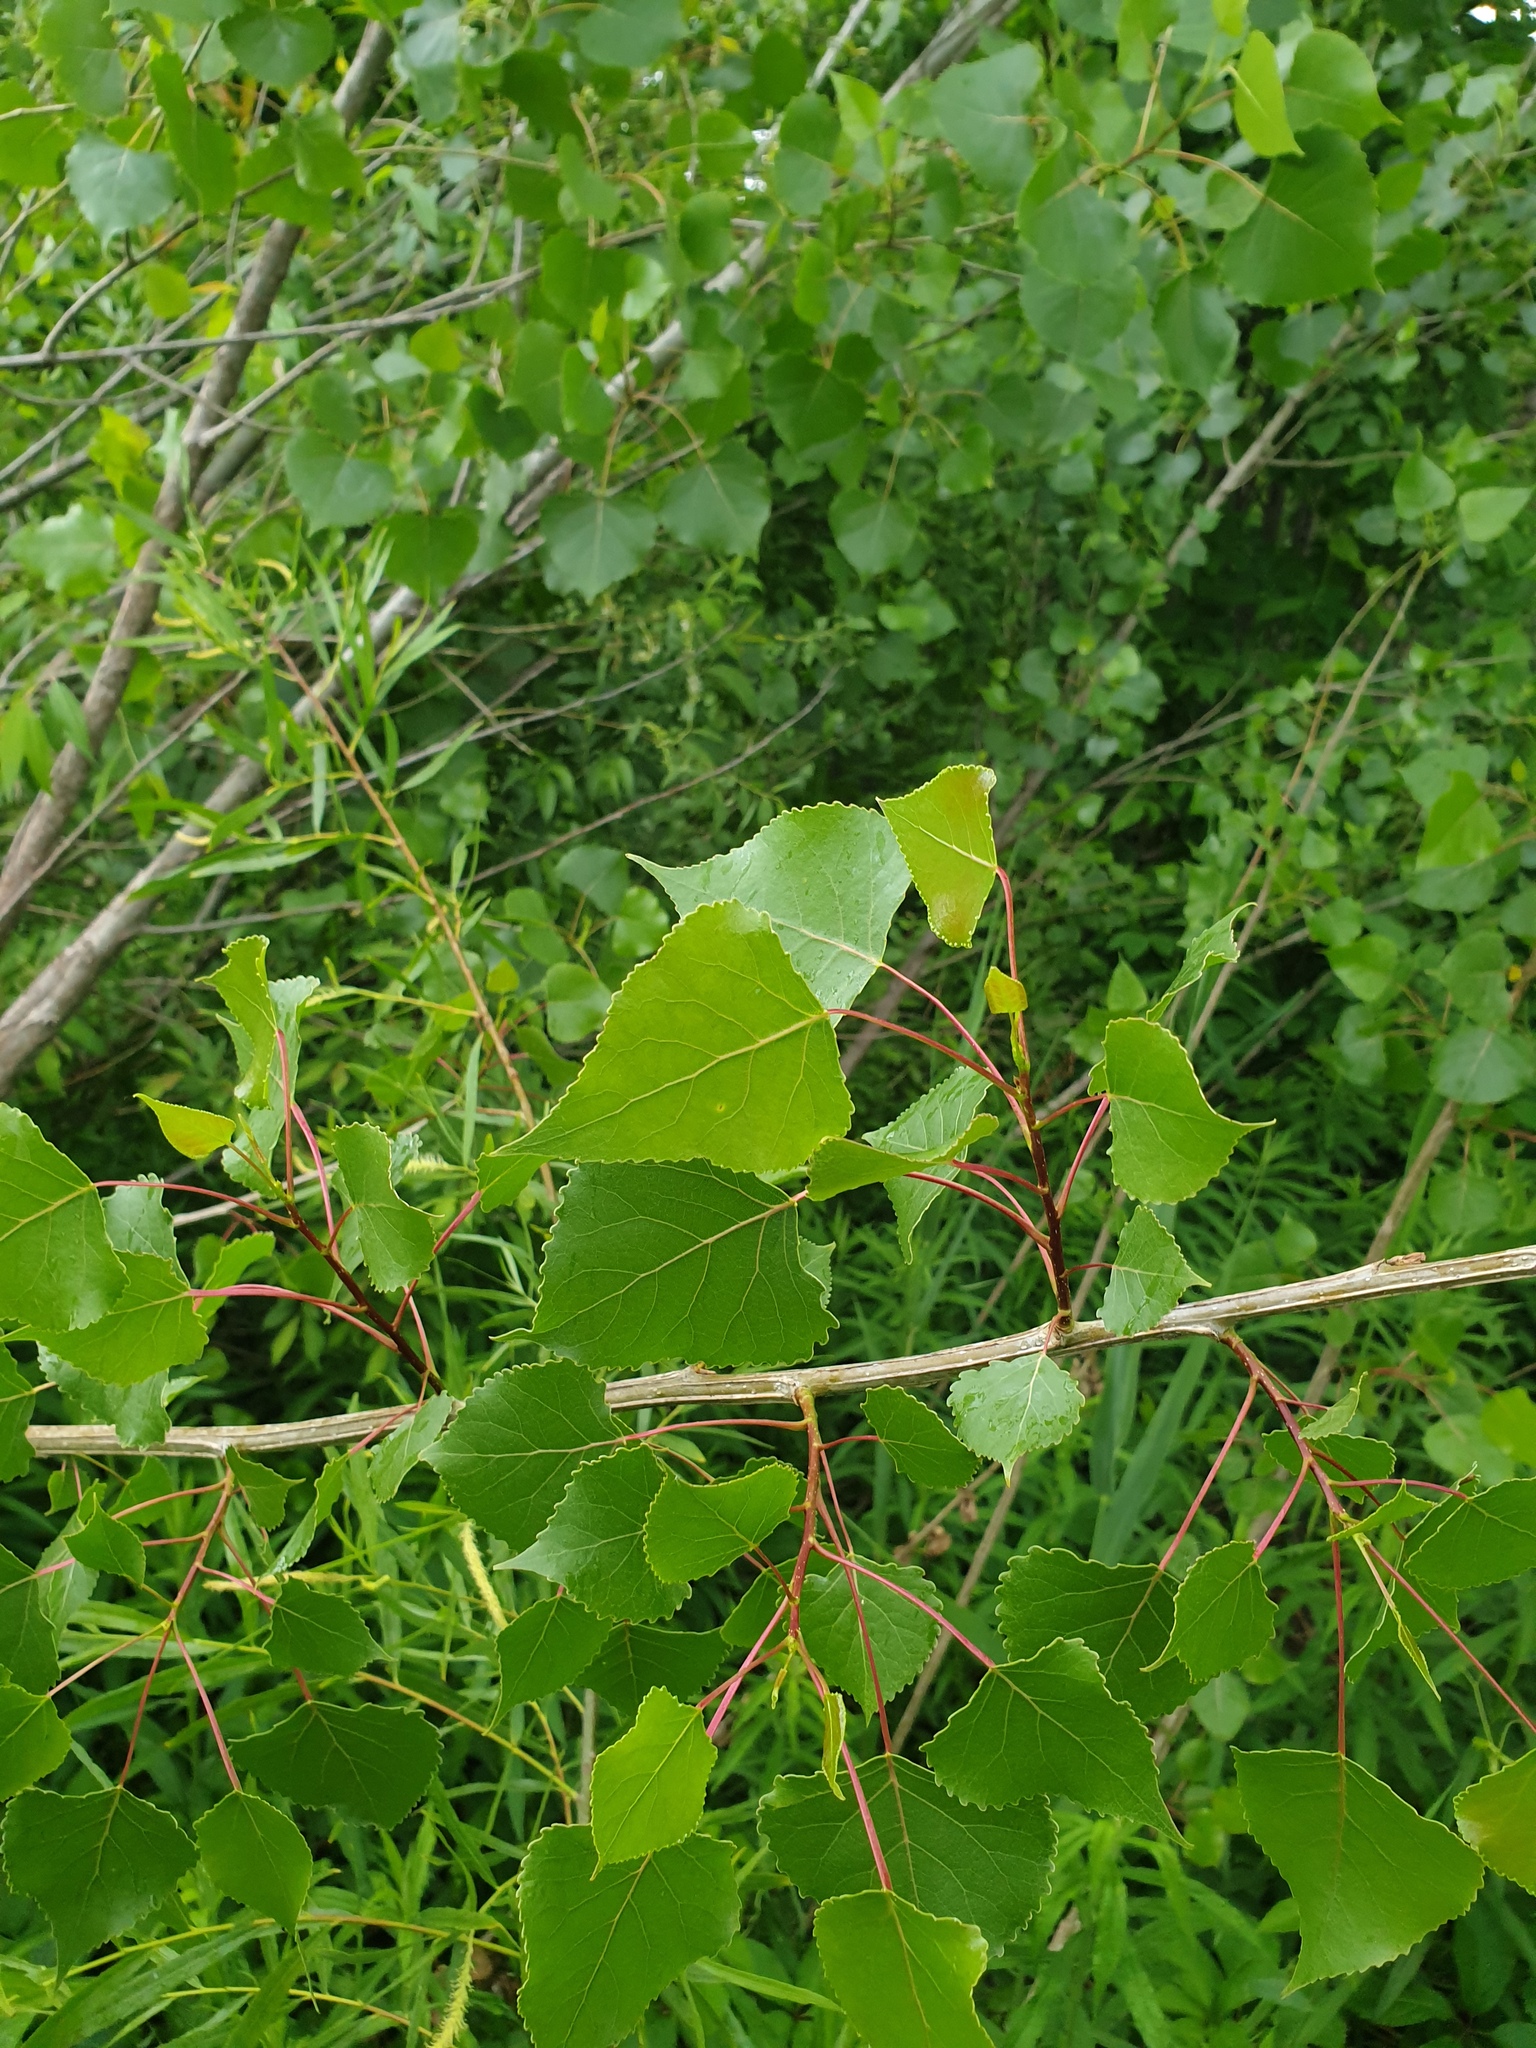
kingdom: Plantae
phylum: Tracheophyta
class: Magnoliopsida
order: Malpighiales
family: Salicaceae
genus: Populus
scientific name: Populus deltoides
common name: Eastern cottonwood
